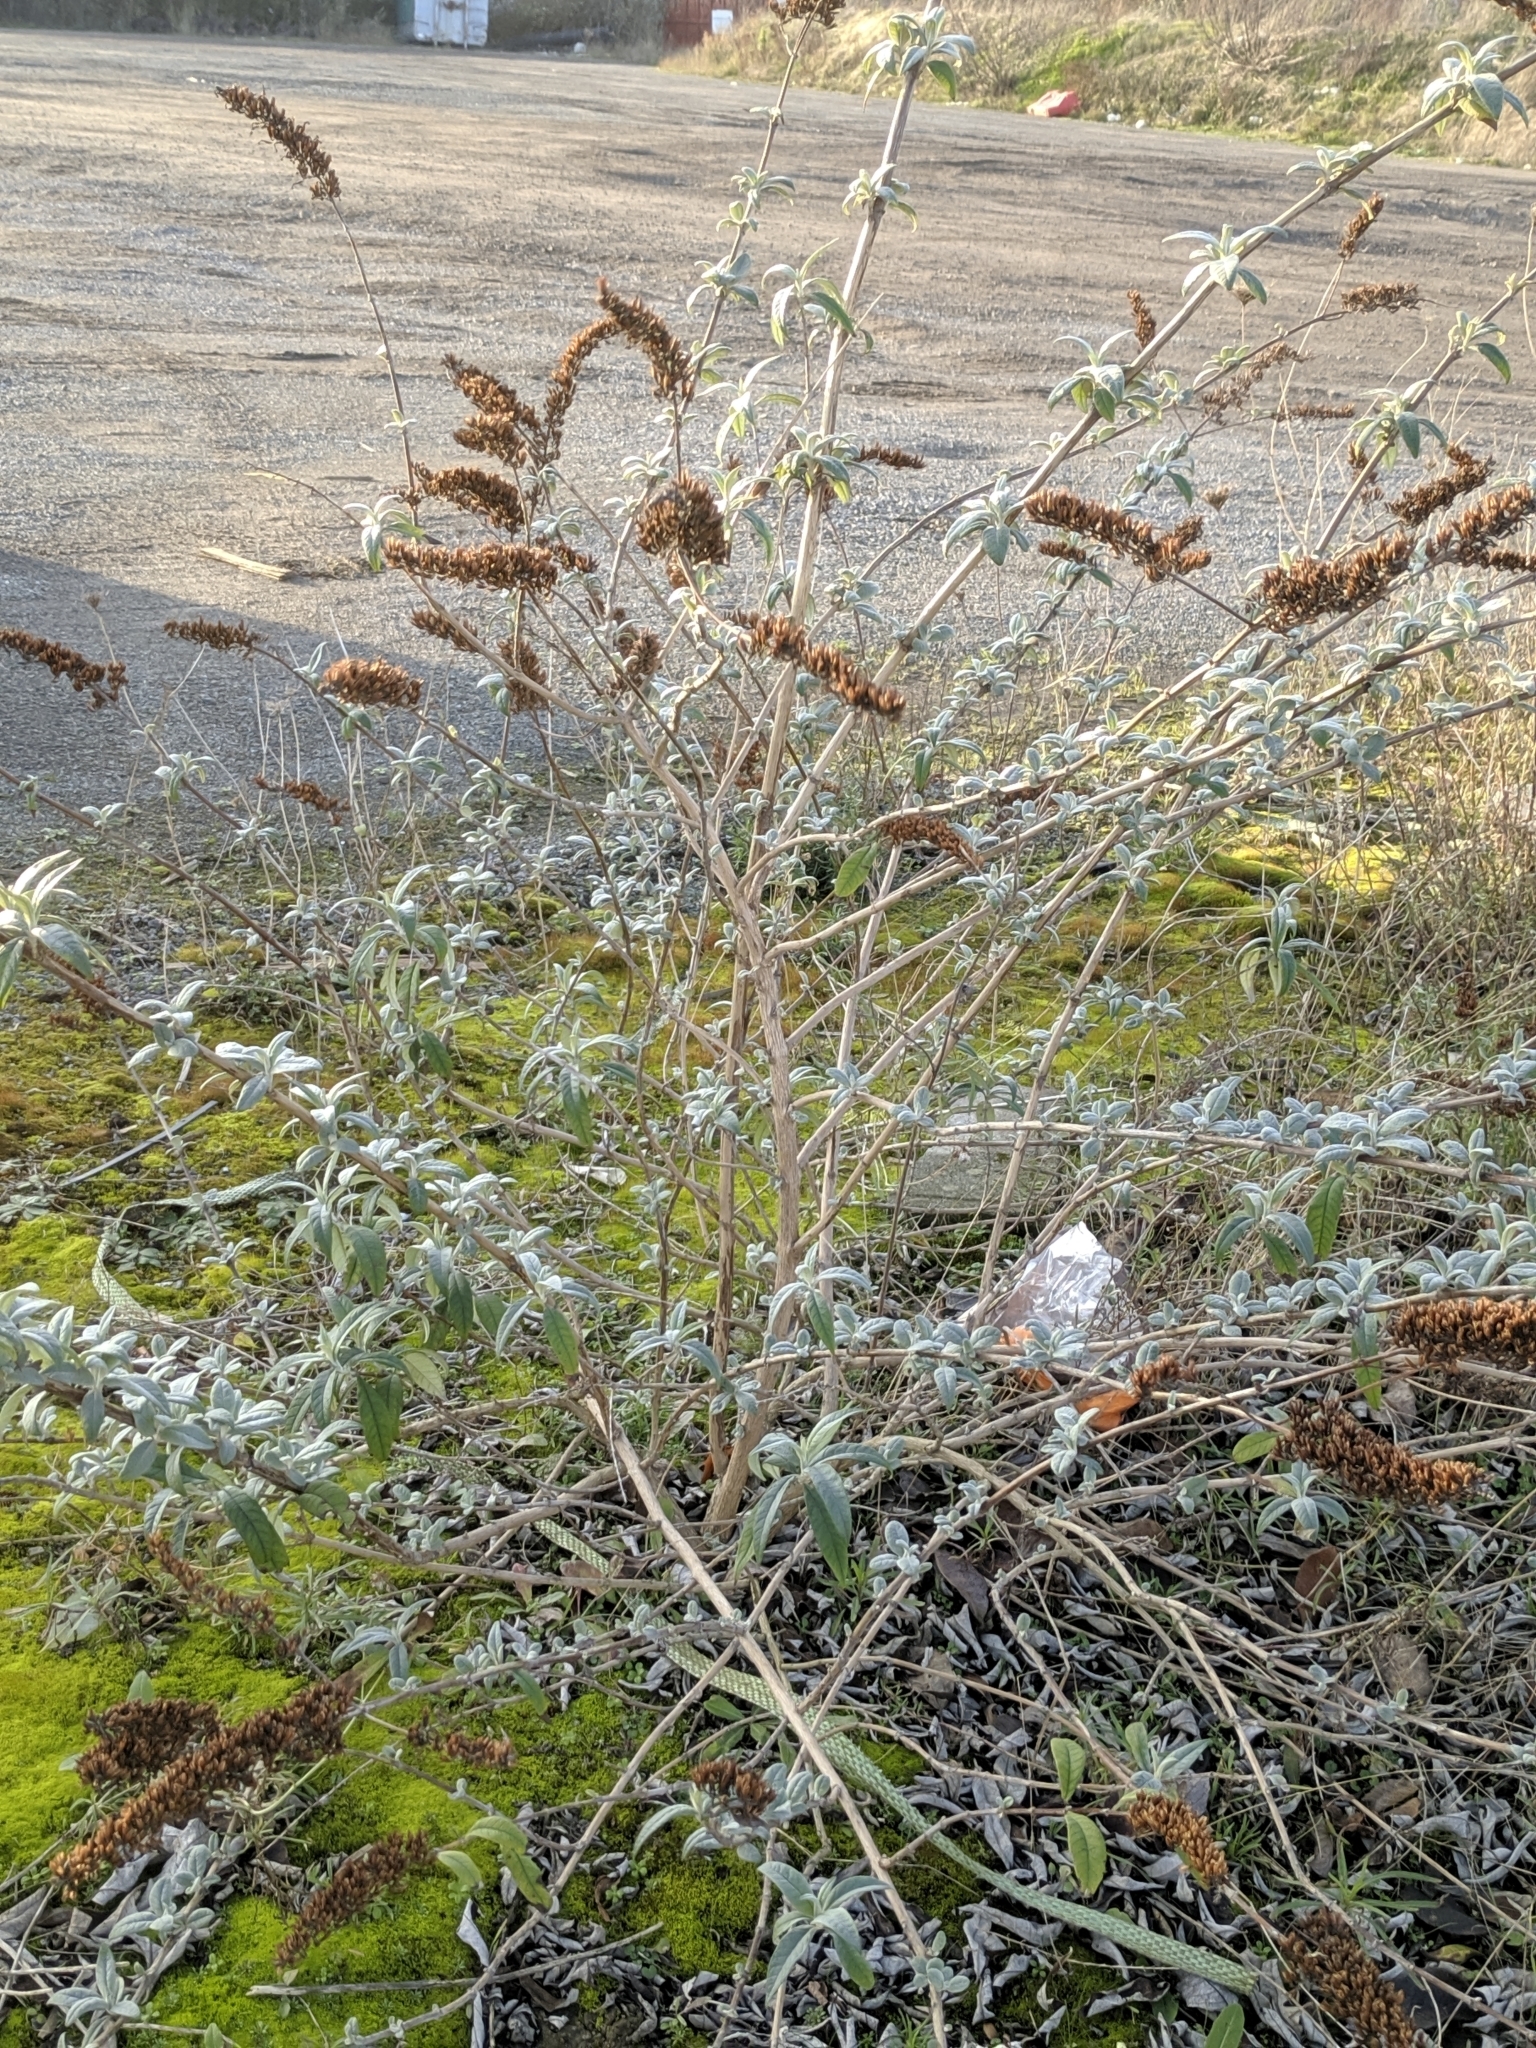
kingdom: Plantae
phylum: Tracheophyta
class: Magnoliopsida
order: Lamiales
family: Scrophulariaceae
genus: Buddleja
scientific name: Buddleja davidii
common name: Butterfly-bush
